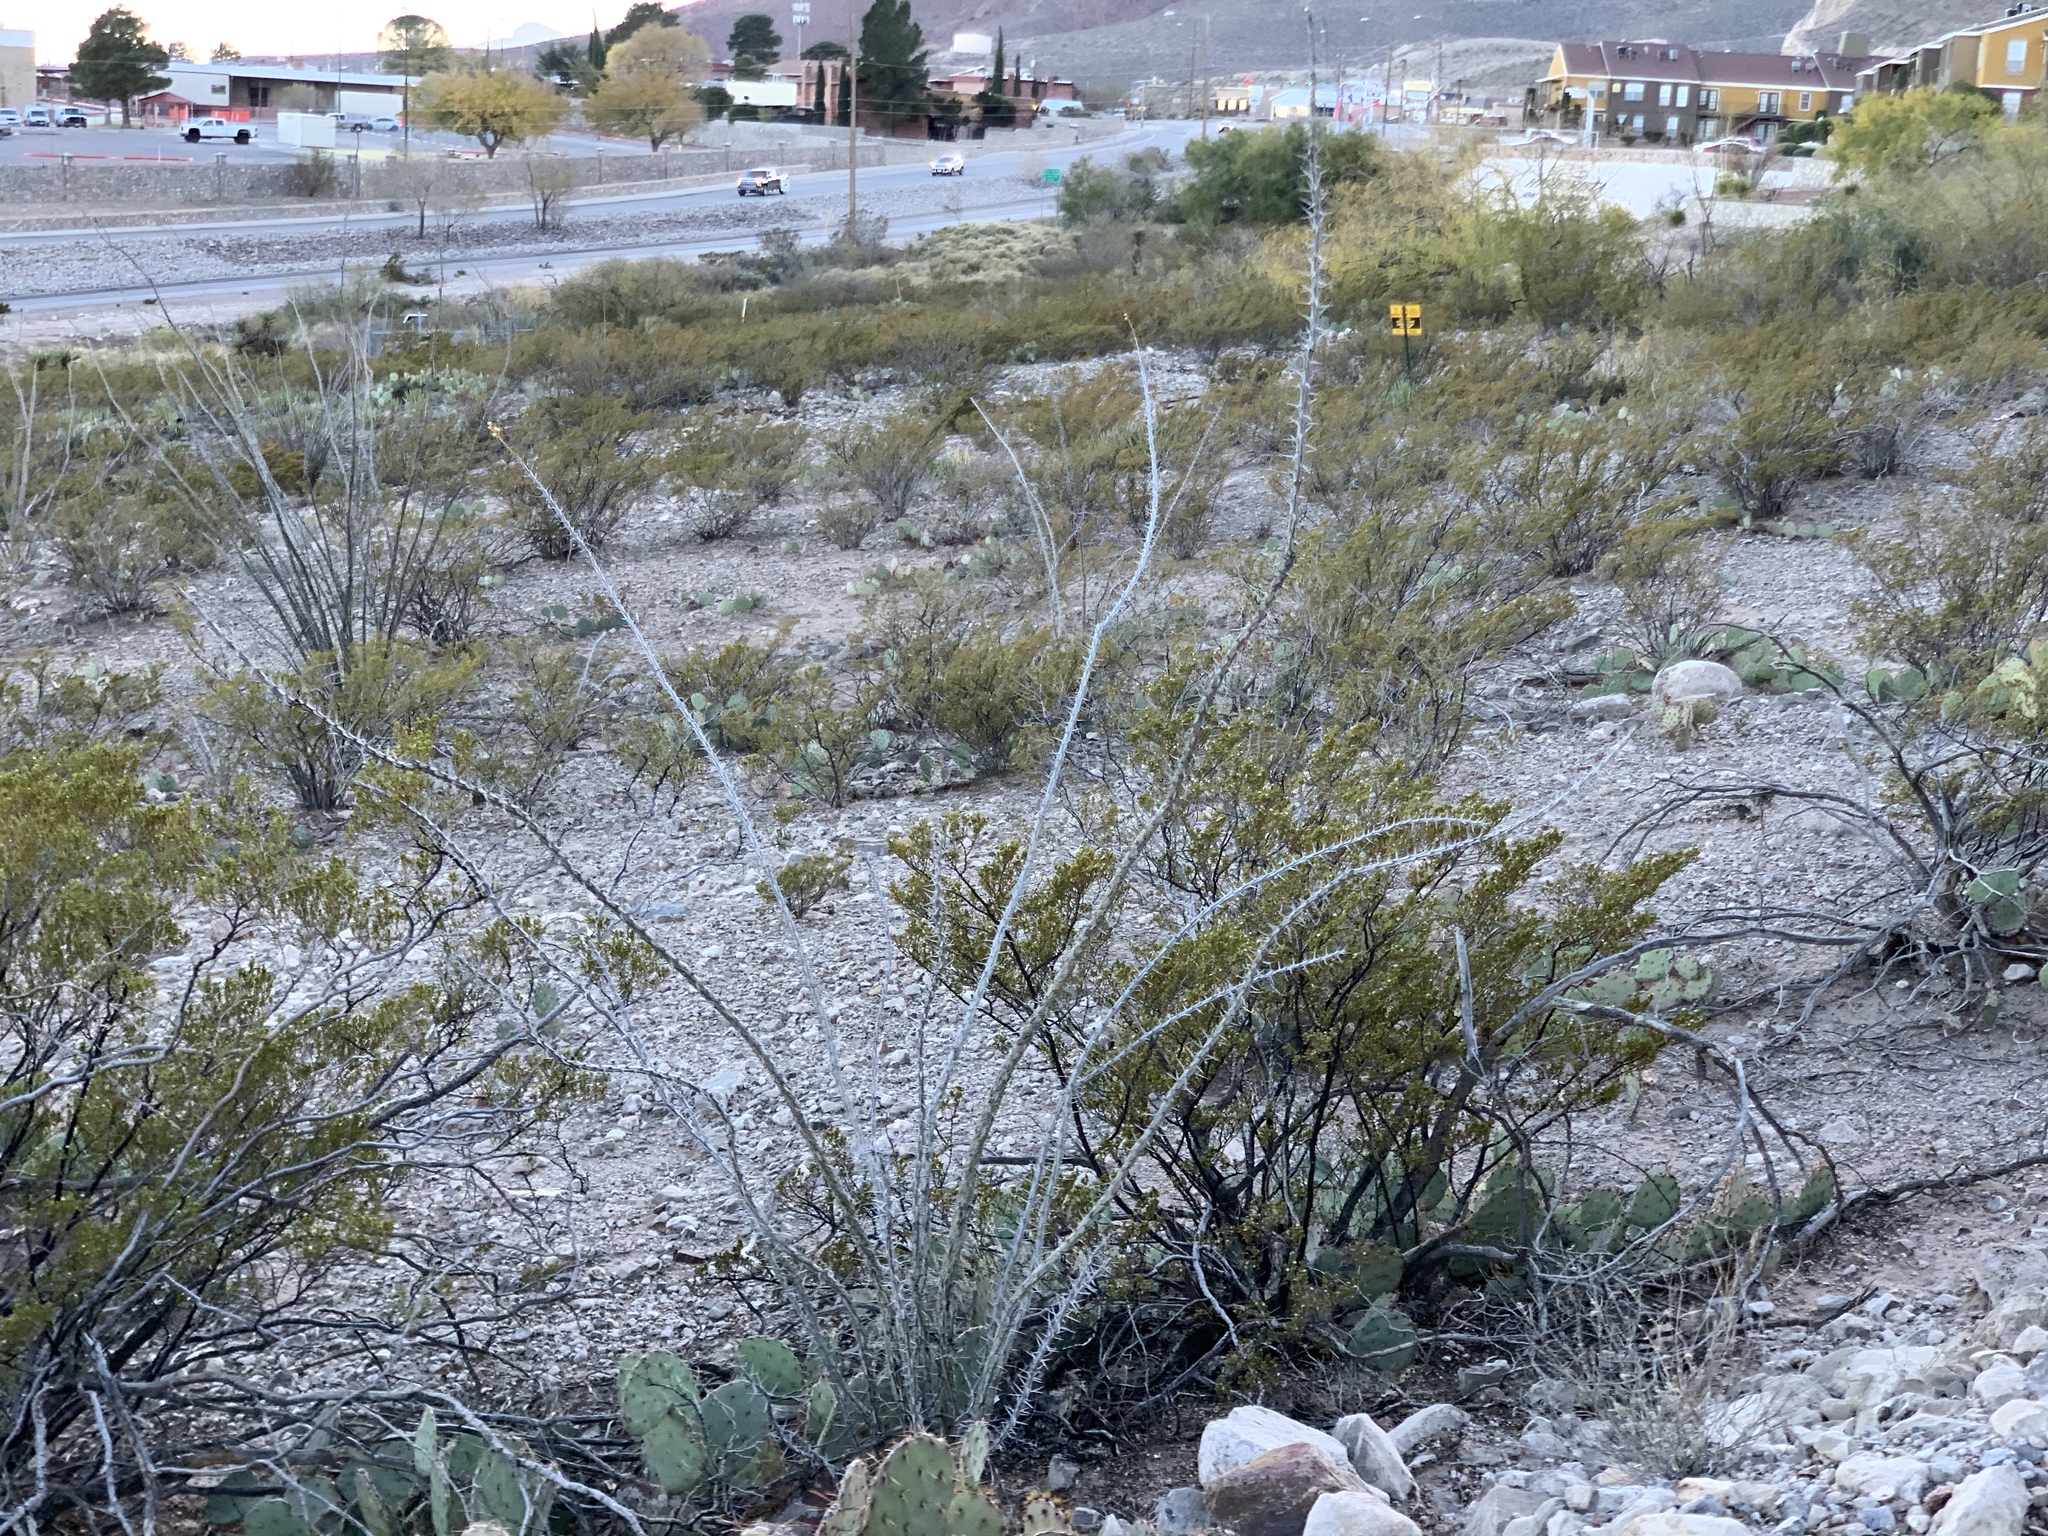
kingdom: Plantae
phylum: Tracheophyta
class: Magnoliopsida
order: Ericales
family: Fouquieriaceae
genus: Fouquieria
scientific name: Fouquieria splendens
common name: Vine-cactus
